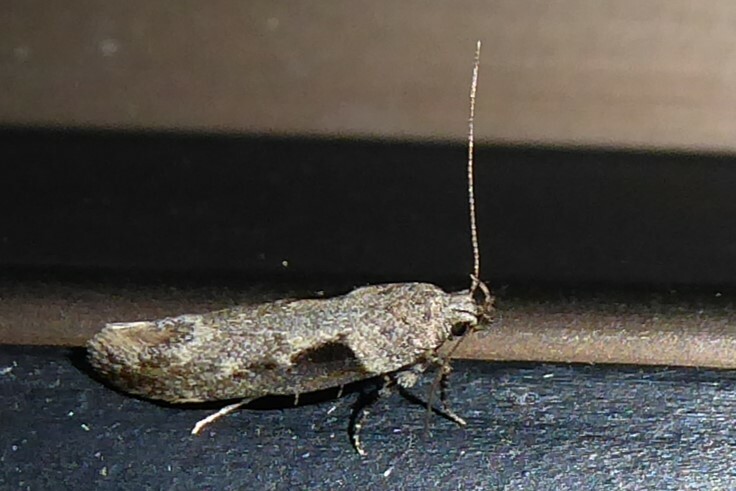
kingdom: Animalia
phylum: Arthropoda
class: Insecta
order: Lepidoptera
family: Gelechiidae
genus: Symmetrischema
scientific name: Symmetrischema tangolias
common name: Moth
